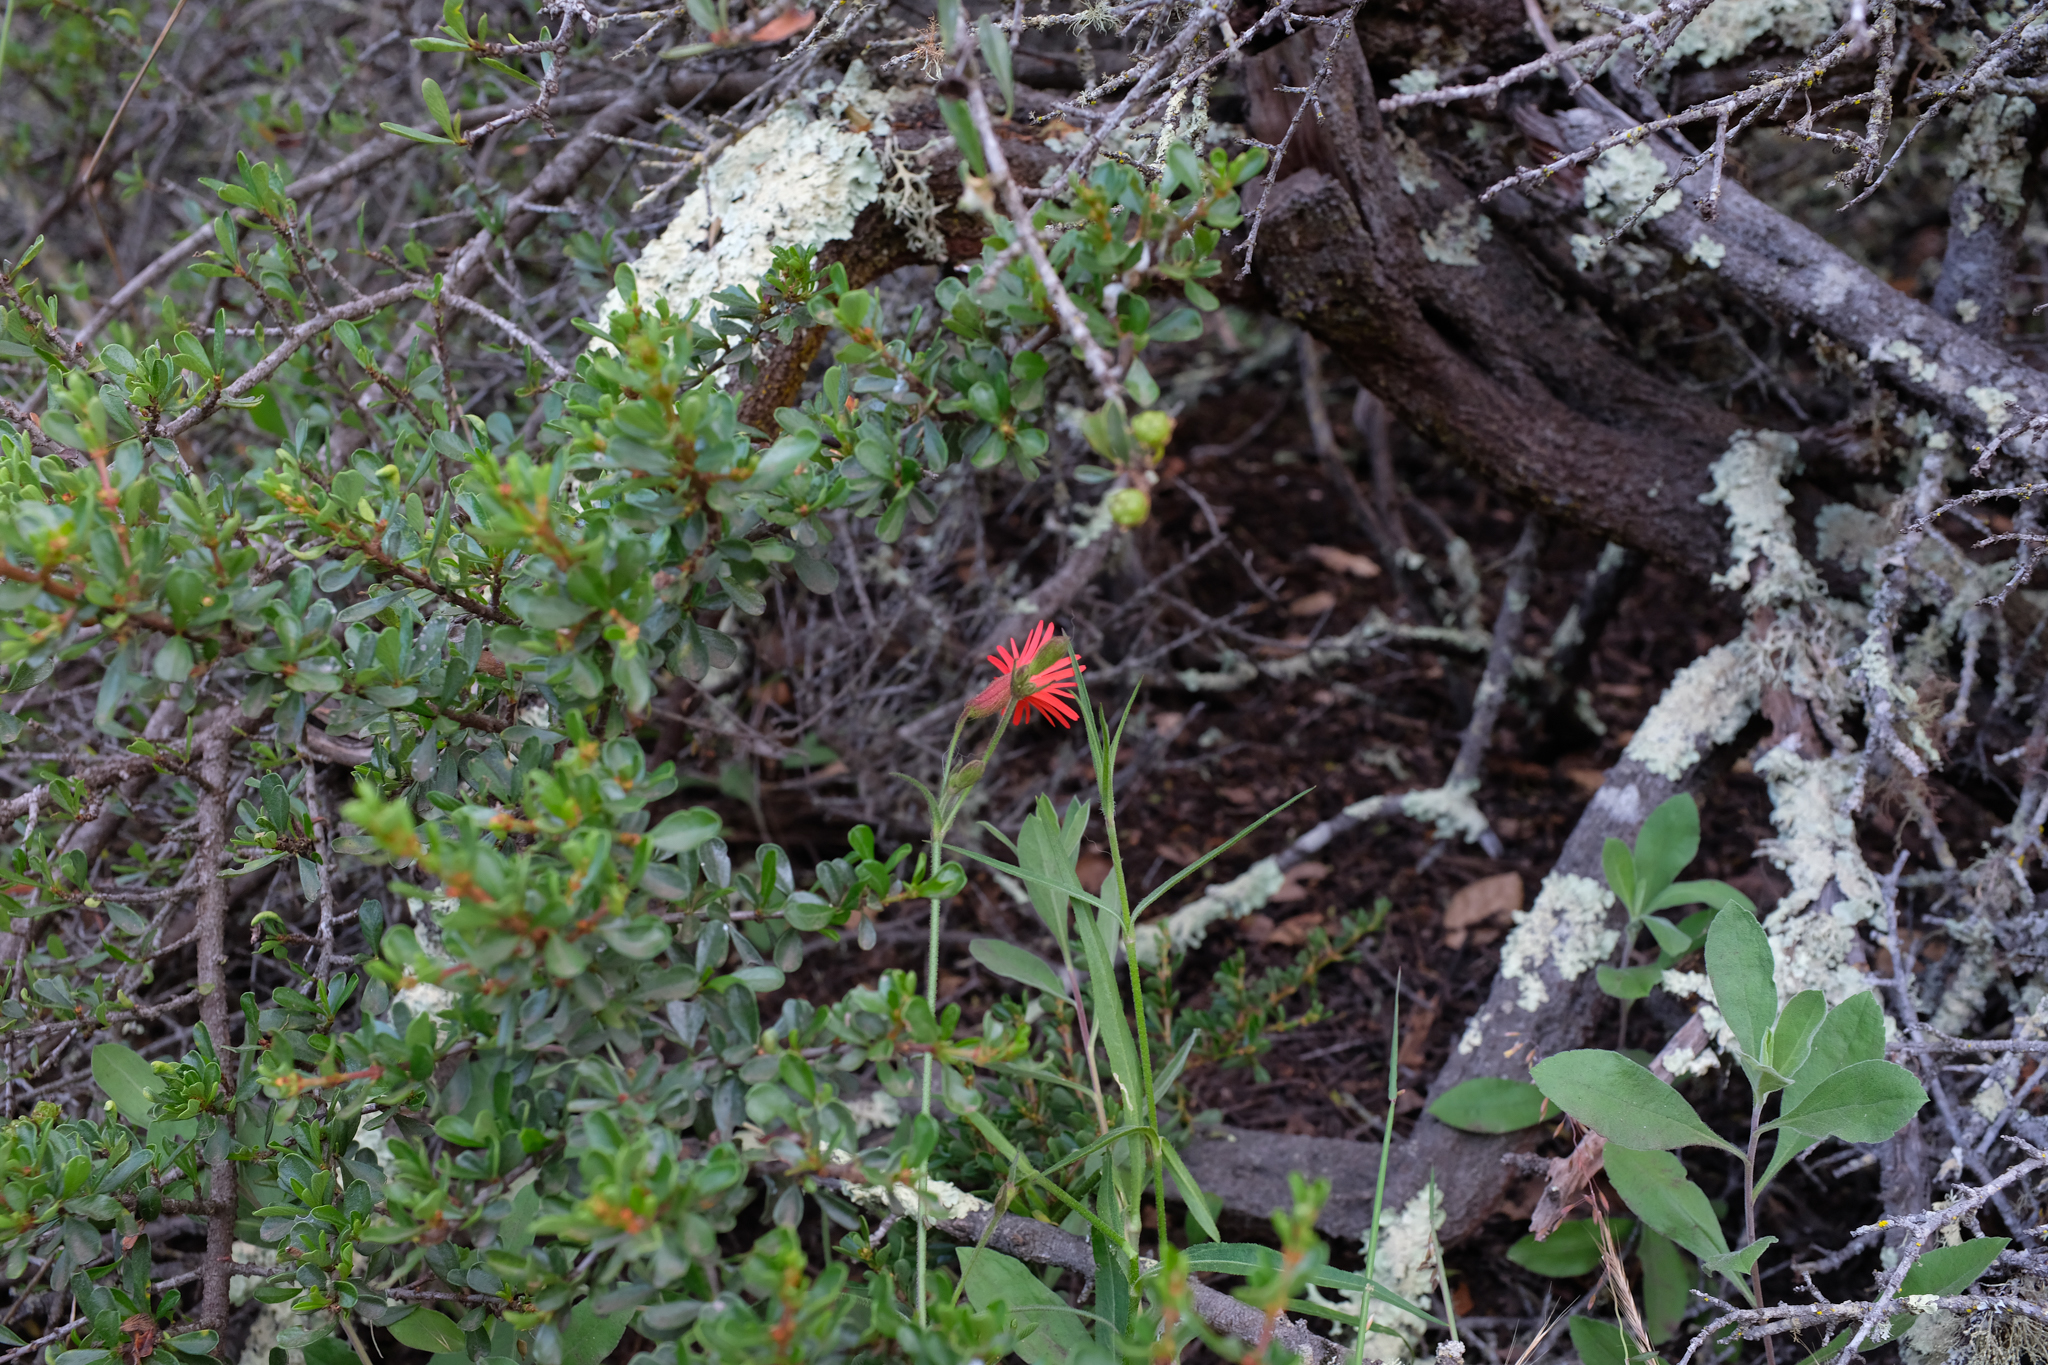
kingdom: Plantae
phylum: Tracheophyta
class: Magnoliopsida
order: Caryophyllales
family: Caryophyllaceae
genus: Silene
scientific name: Silene laciniata
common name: Indian-pink
